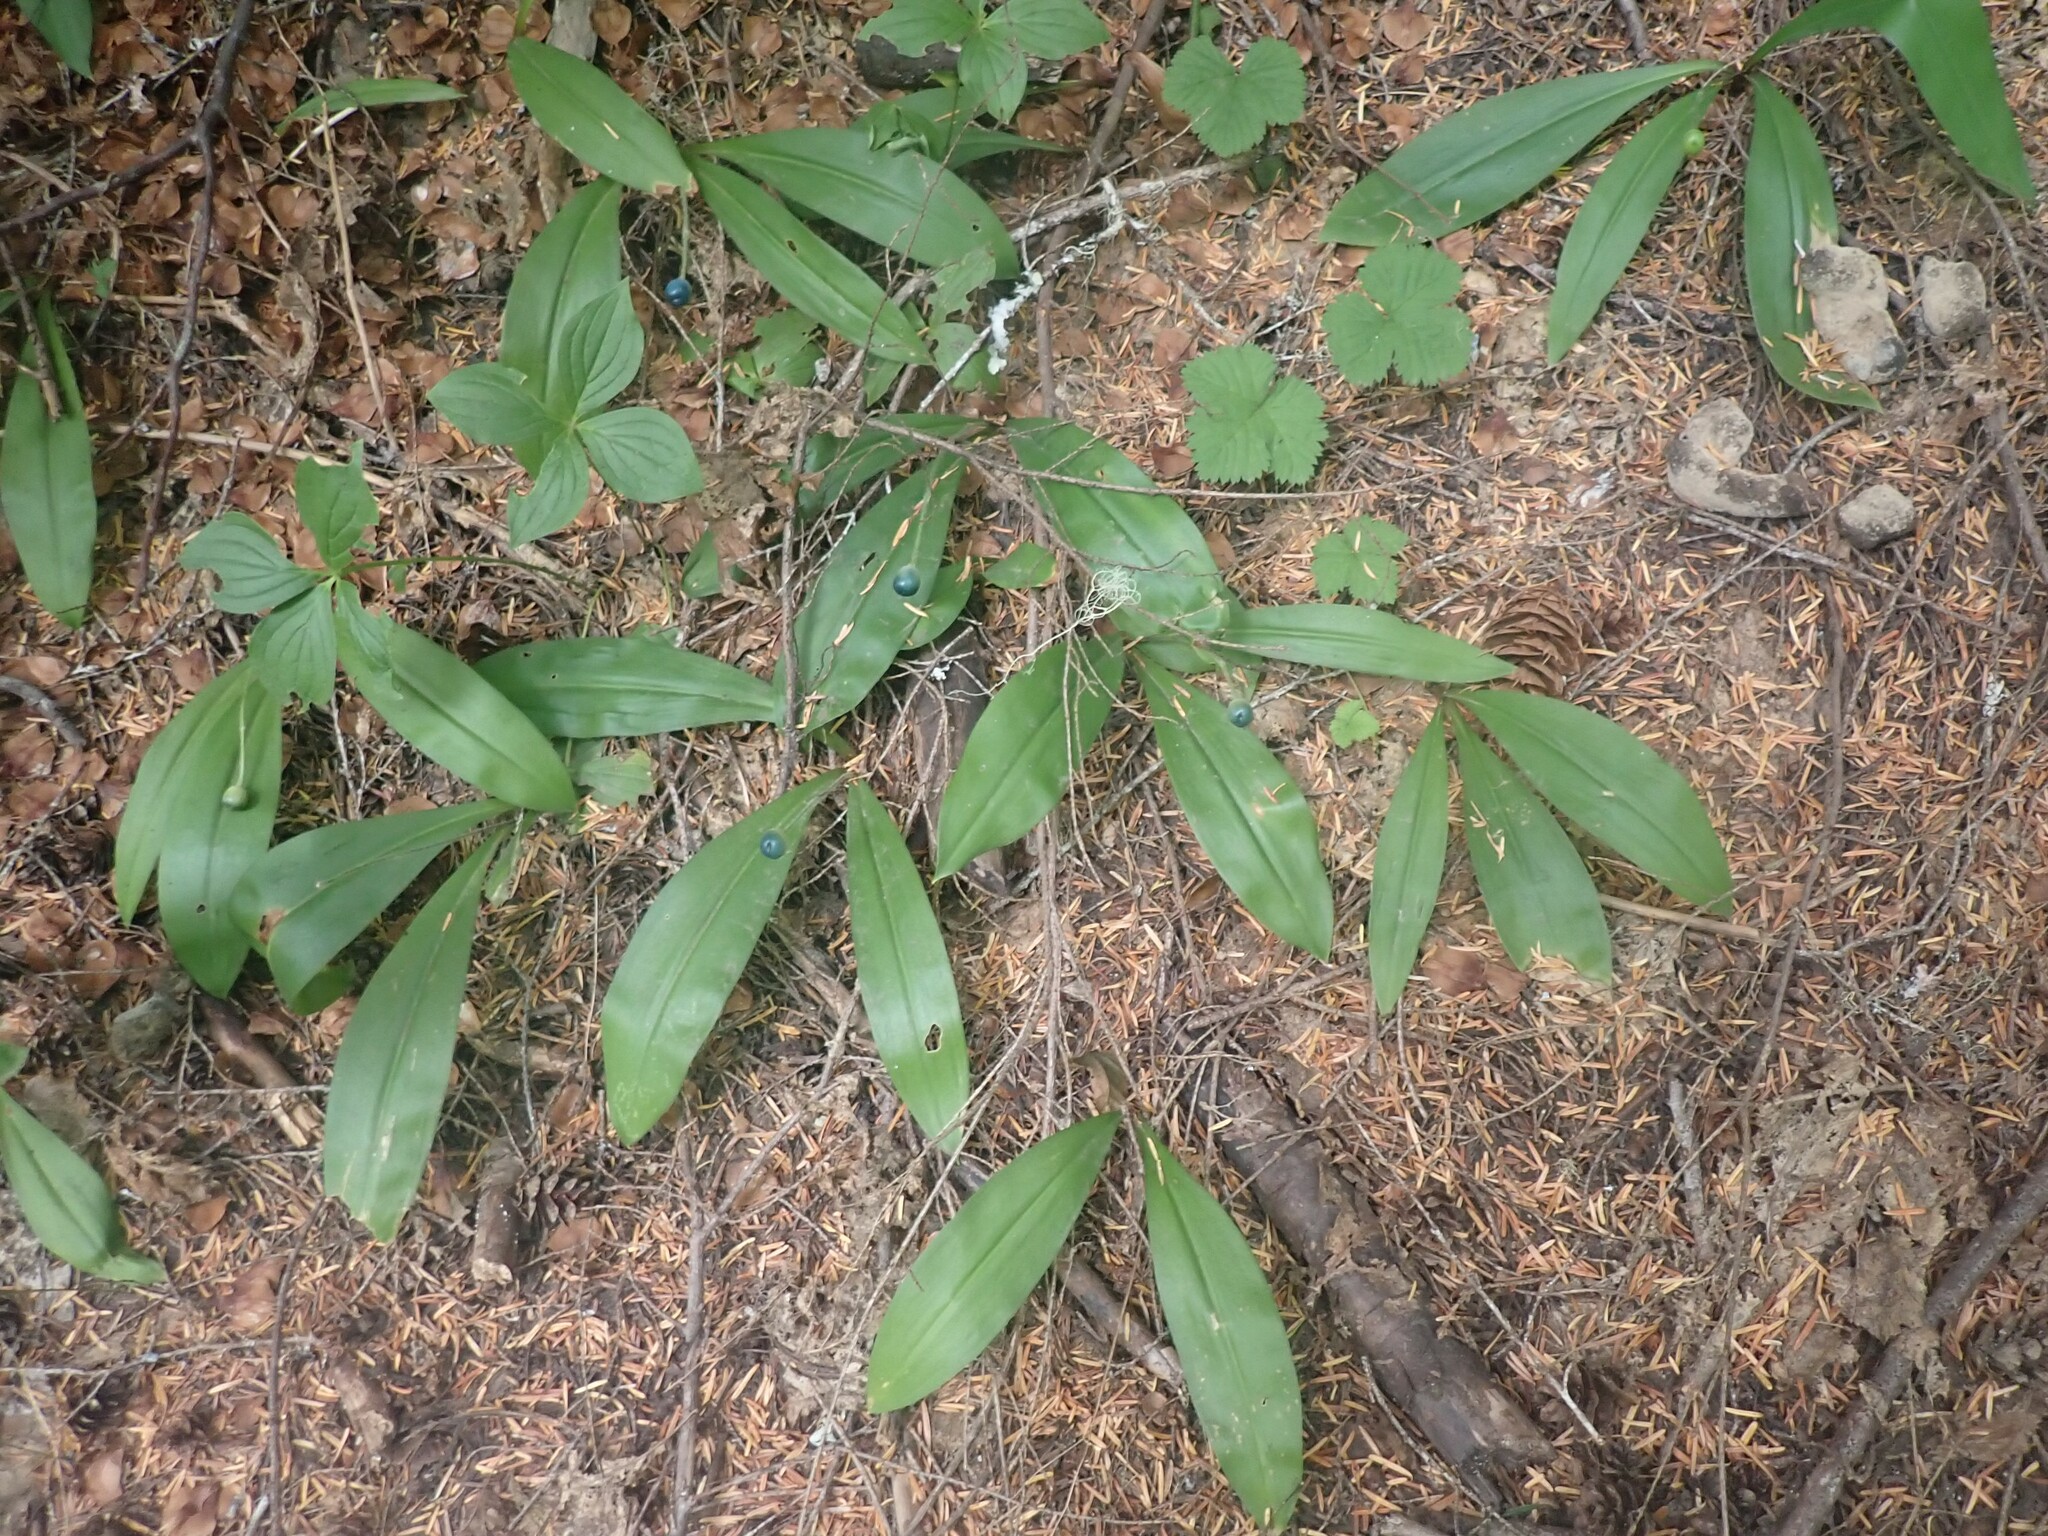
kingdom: Plantae
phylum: Tracheophyta
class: Liliopsida
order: Liliales
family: Liliaceae
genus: Clintonia
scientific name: Clintonia uniflora
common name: Queen's cup
